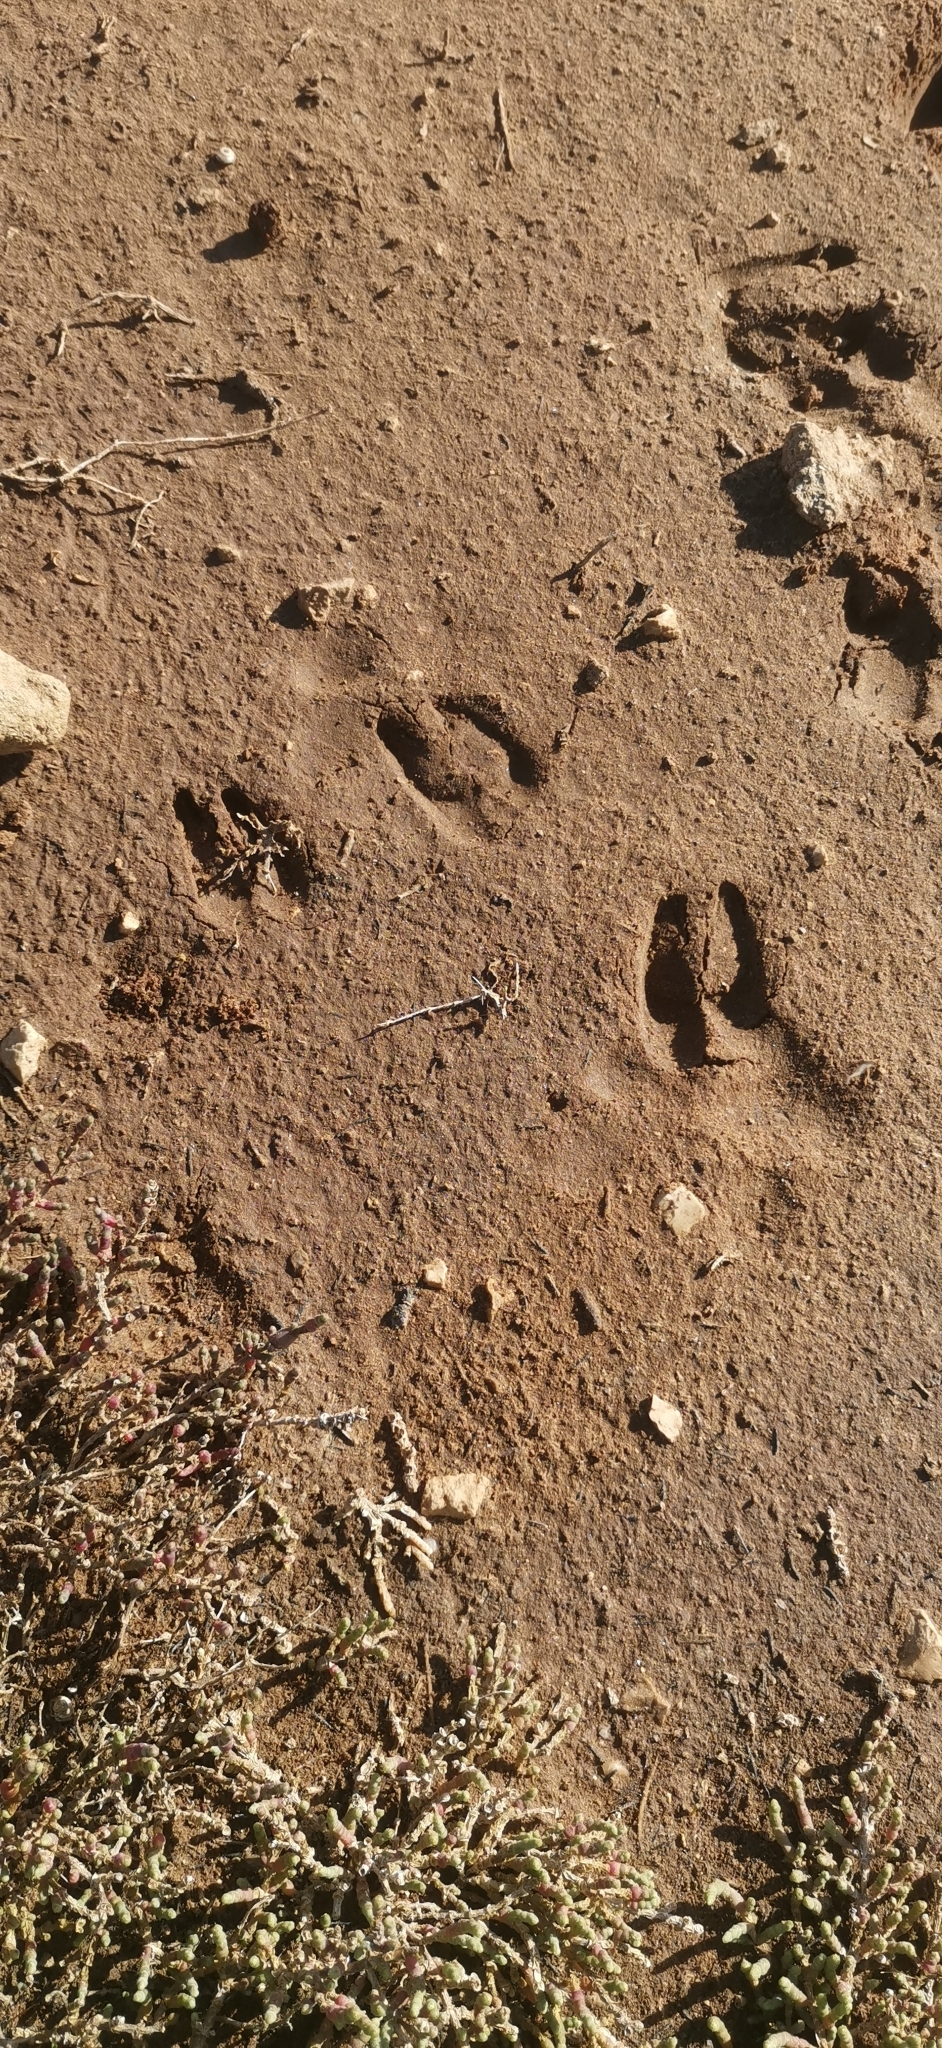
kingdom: Animalia
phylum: Chordata
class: Mammalia
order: Artiodactyla
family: Suidae
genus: Sus
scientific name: Sus scrofa
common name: Wild boar
